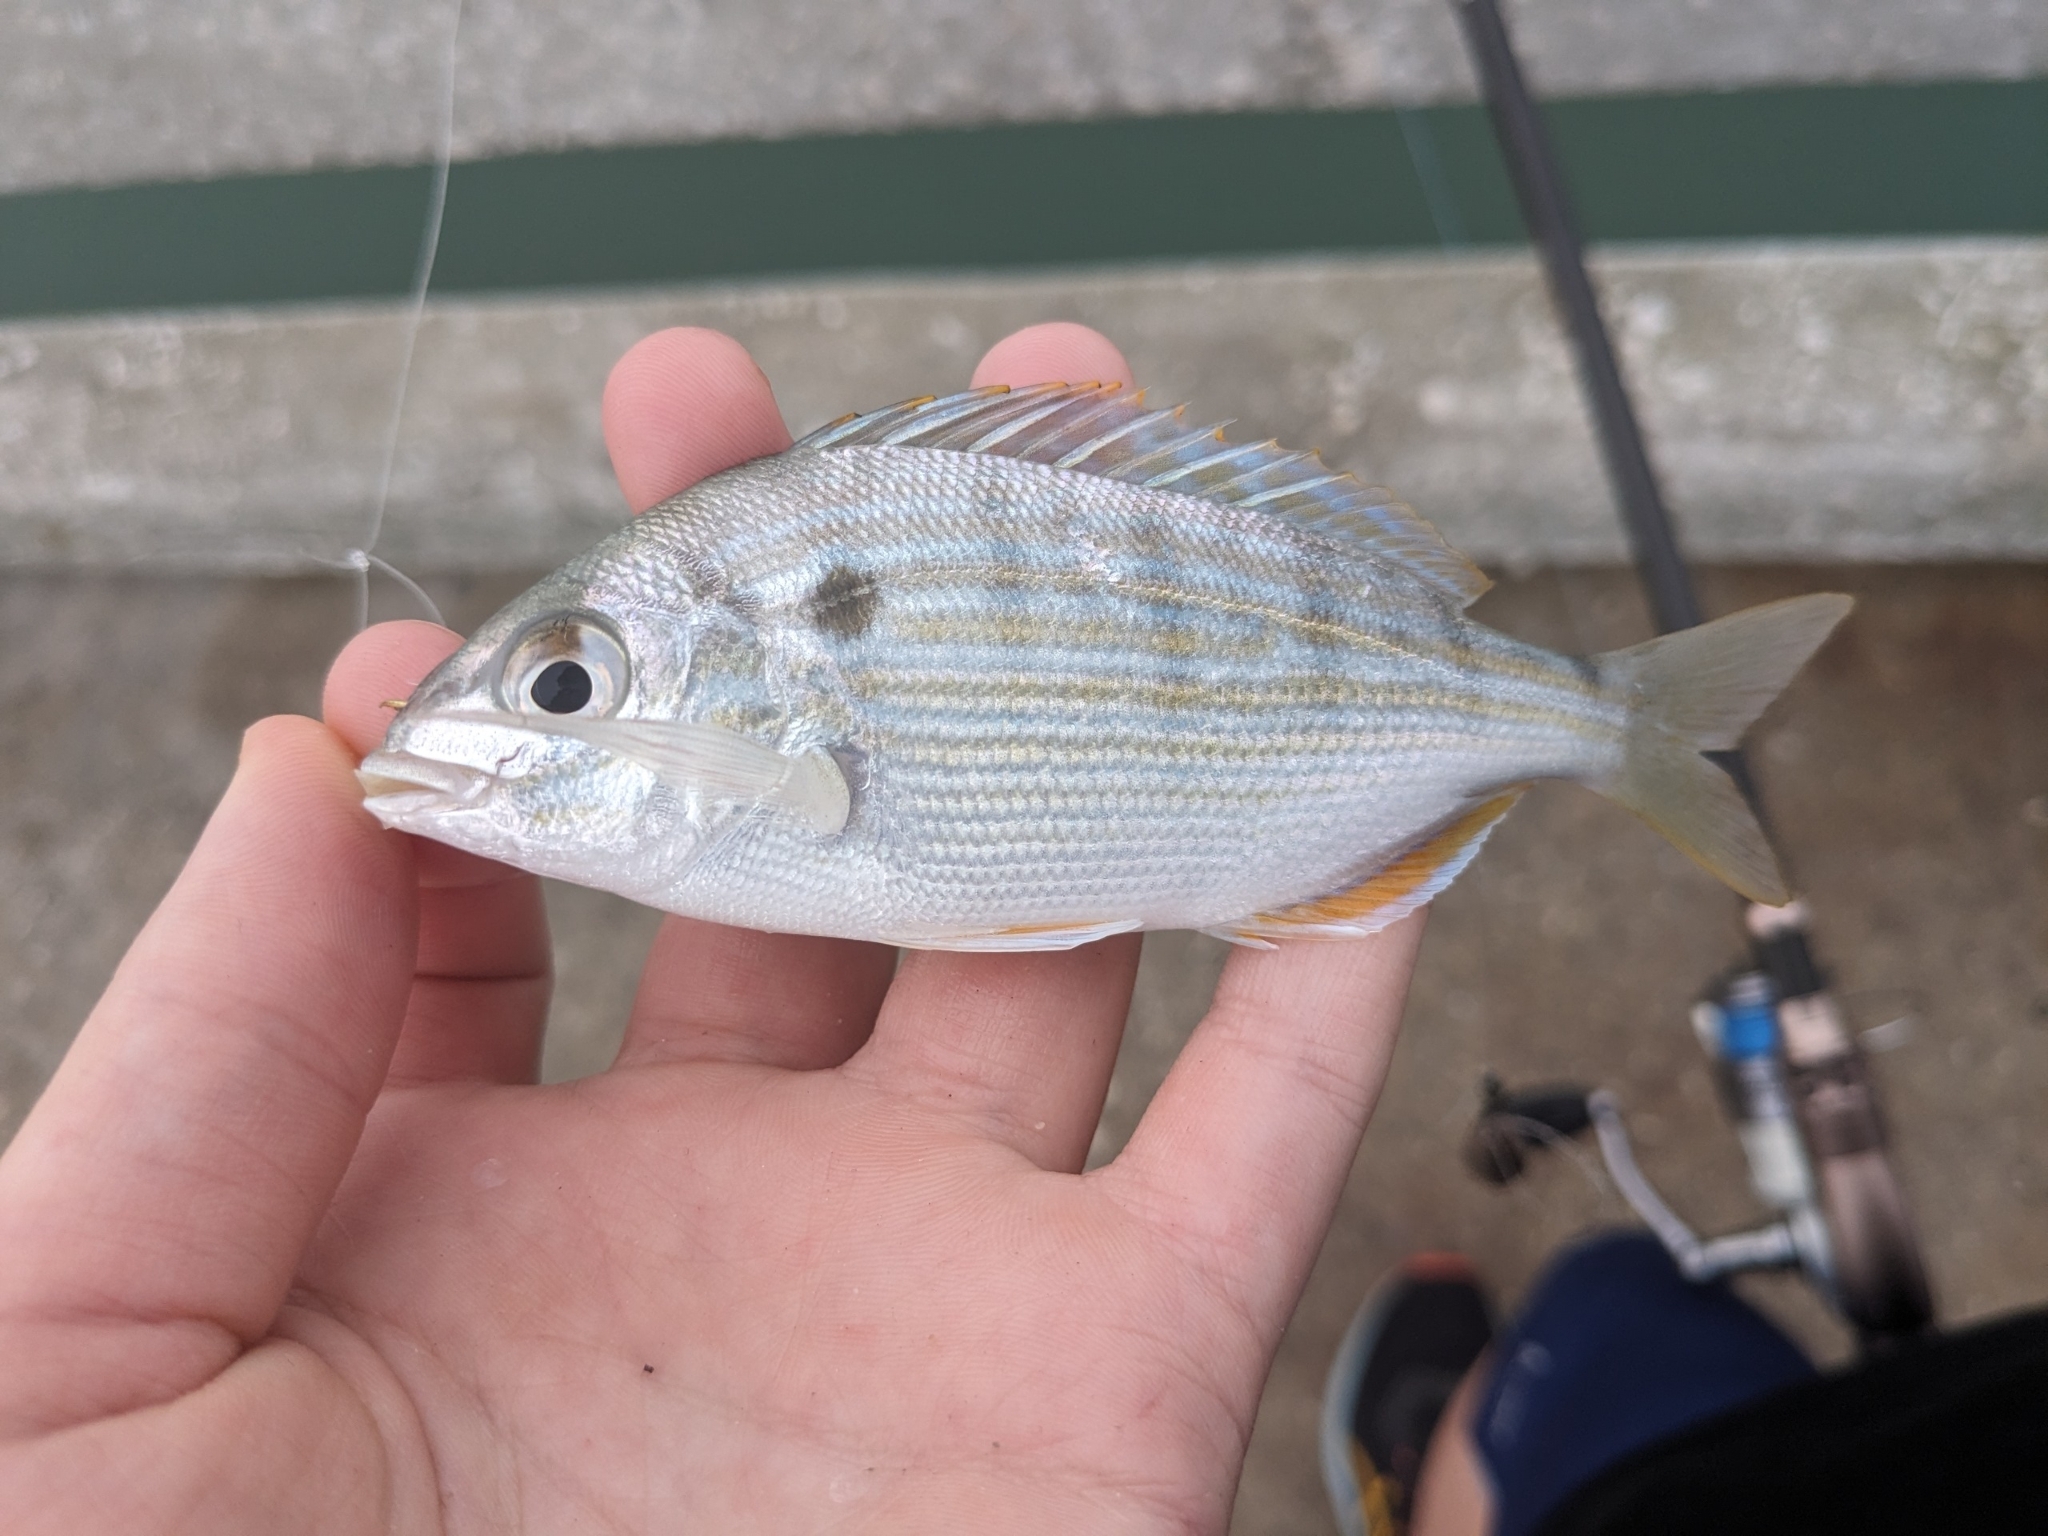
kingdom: Animalia
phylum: Chordata
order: Perciformes
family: Sparidae
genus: Lagodon
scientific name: Lagodon rhomboides
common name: Pinfish
